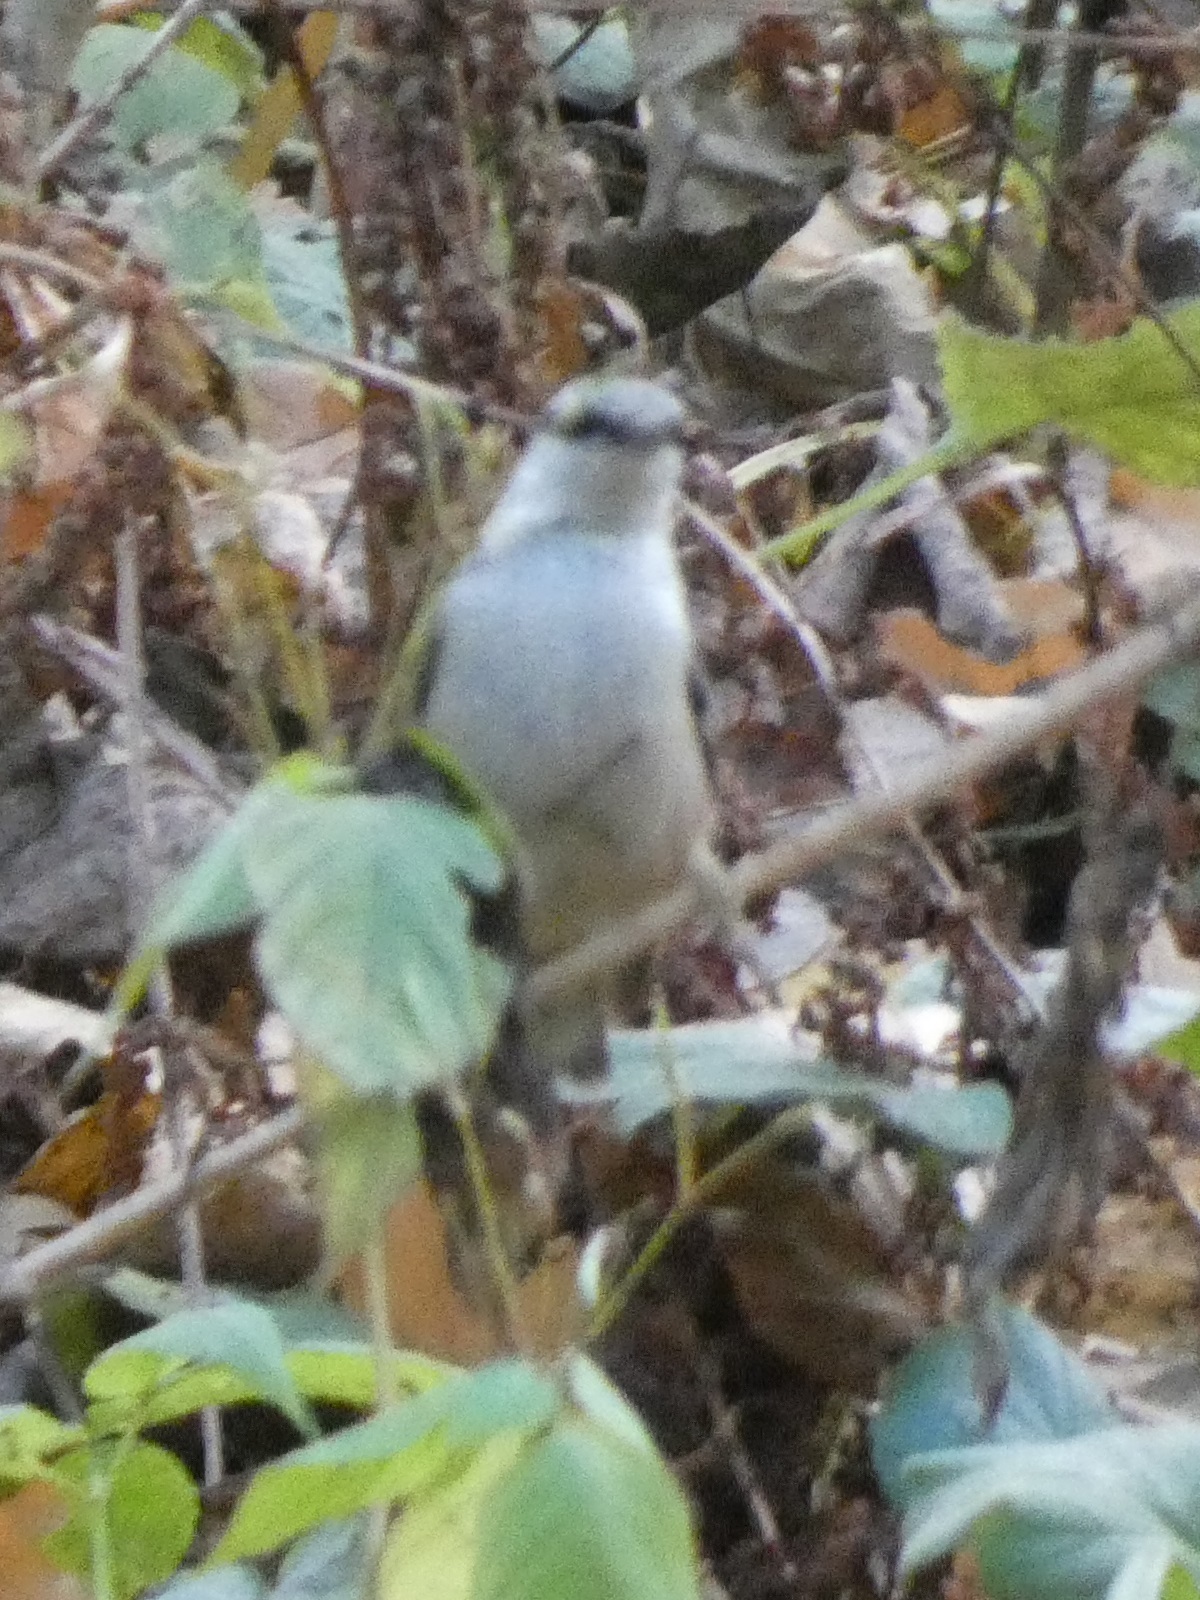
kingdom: Animalia
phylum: Chordata
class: Aves
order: Passeriformes
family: Sittidae
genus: Sitta
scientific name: Sitta europaea
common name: Eurasian nuthatch
